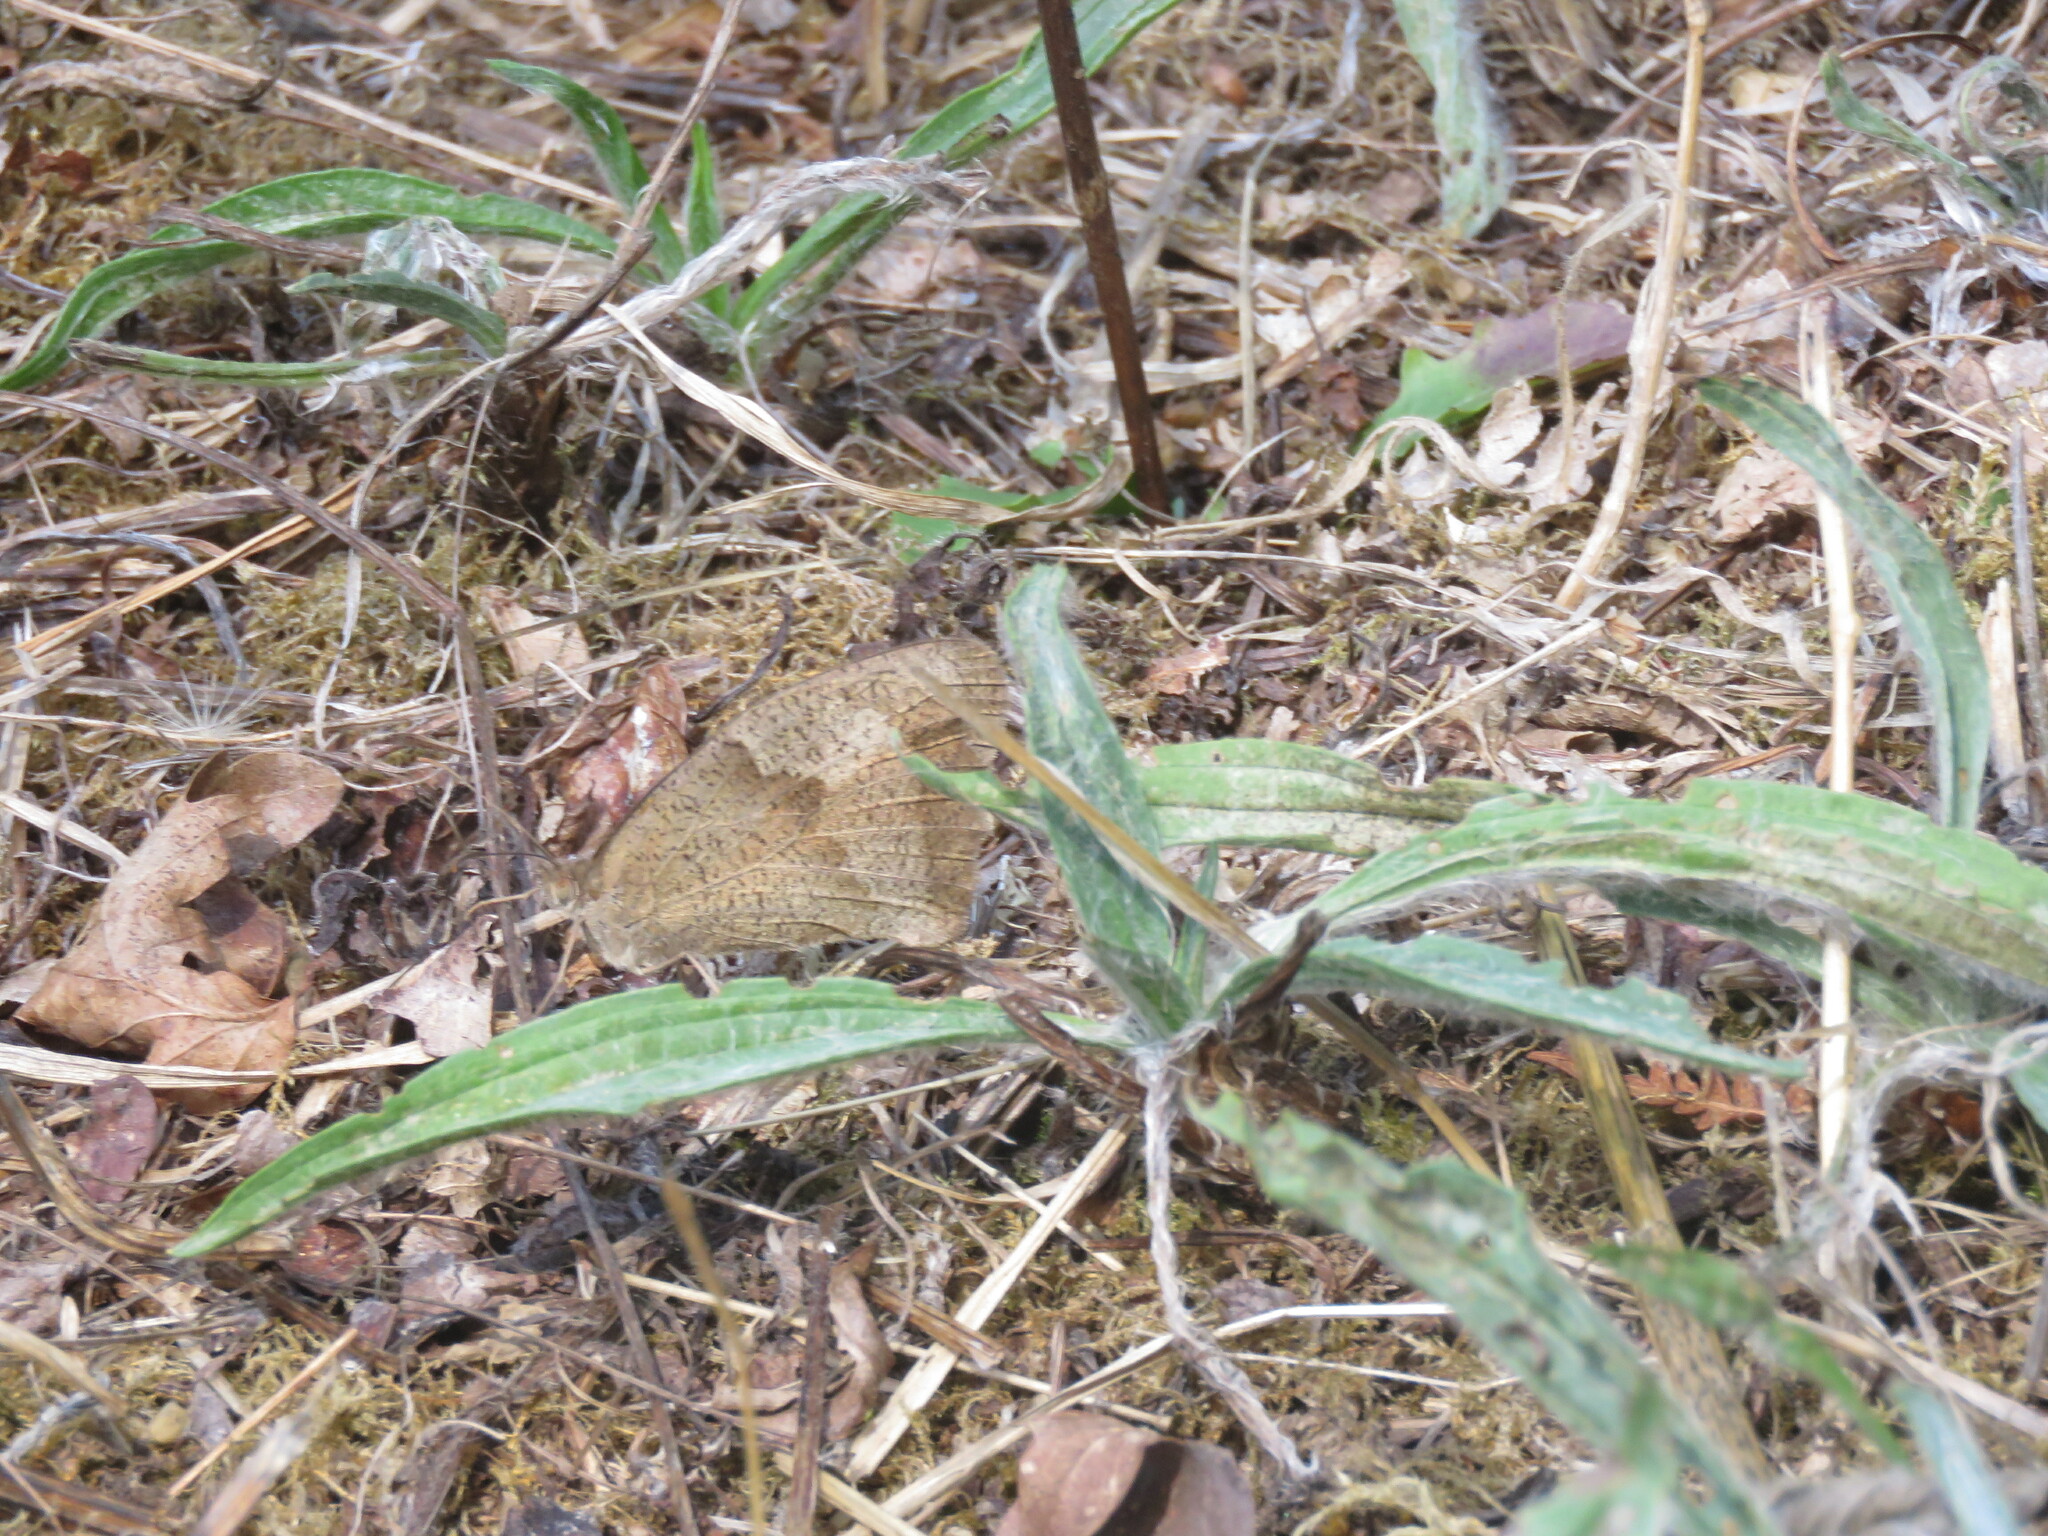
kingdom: Animalia
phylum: Arthropoda
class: Insecta
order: Lepidoptera
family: Nymphalidae
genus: Maniola
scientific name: Maniola jurtina
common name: Meadow brown
